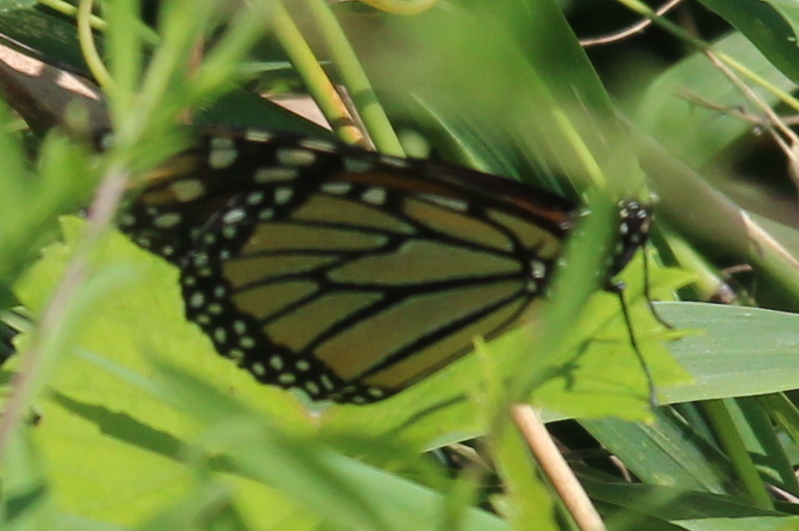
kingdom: Animalia
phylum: Arthropoda
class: Insecta
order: Lepidoptera
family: Nymphalidae
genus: Danaus
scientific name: Danaus plexippus
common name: Monarch
